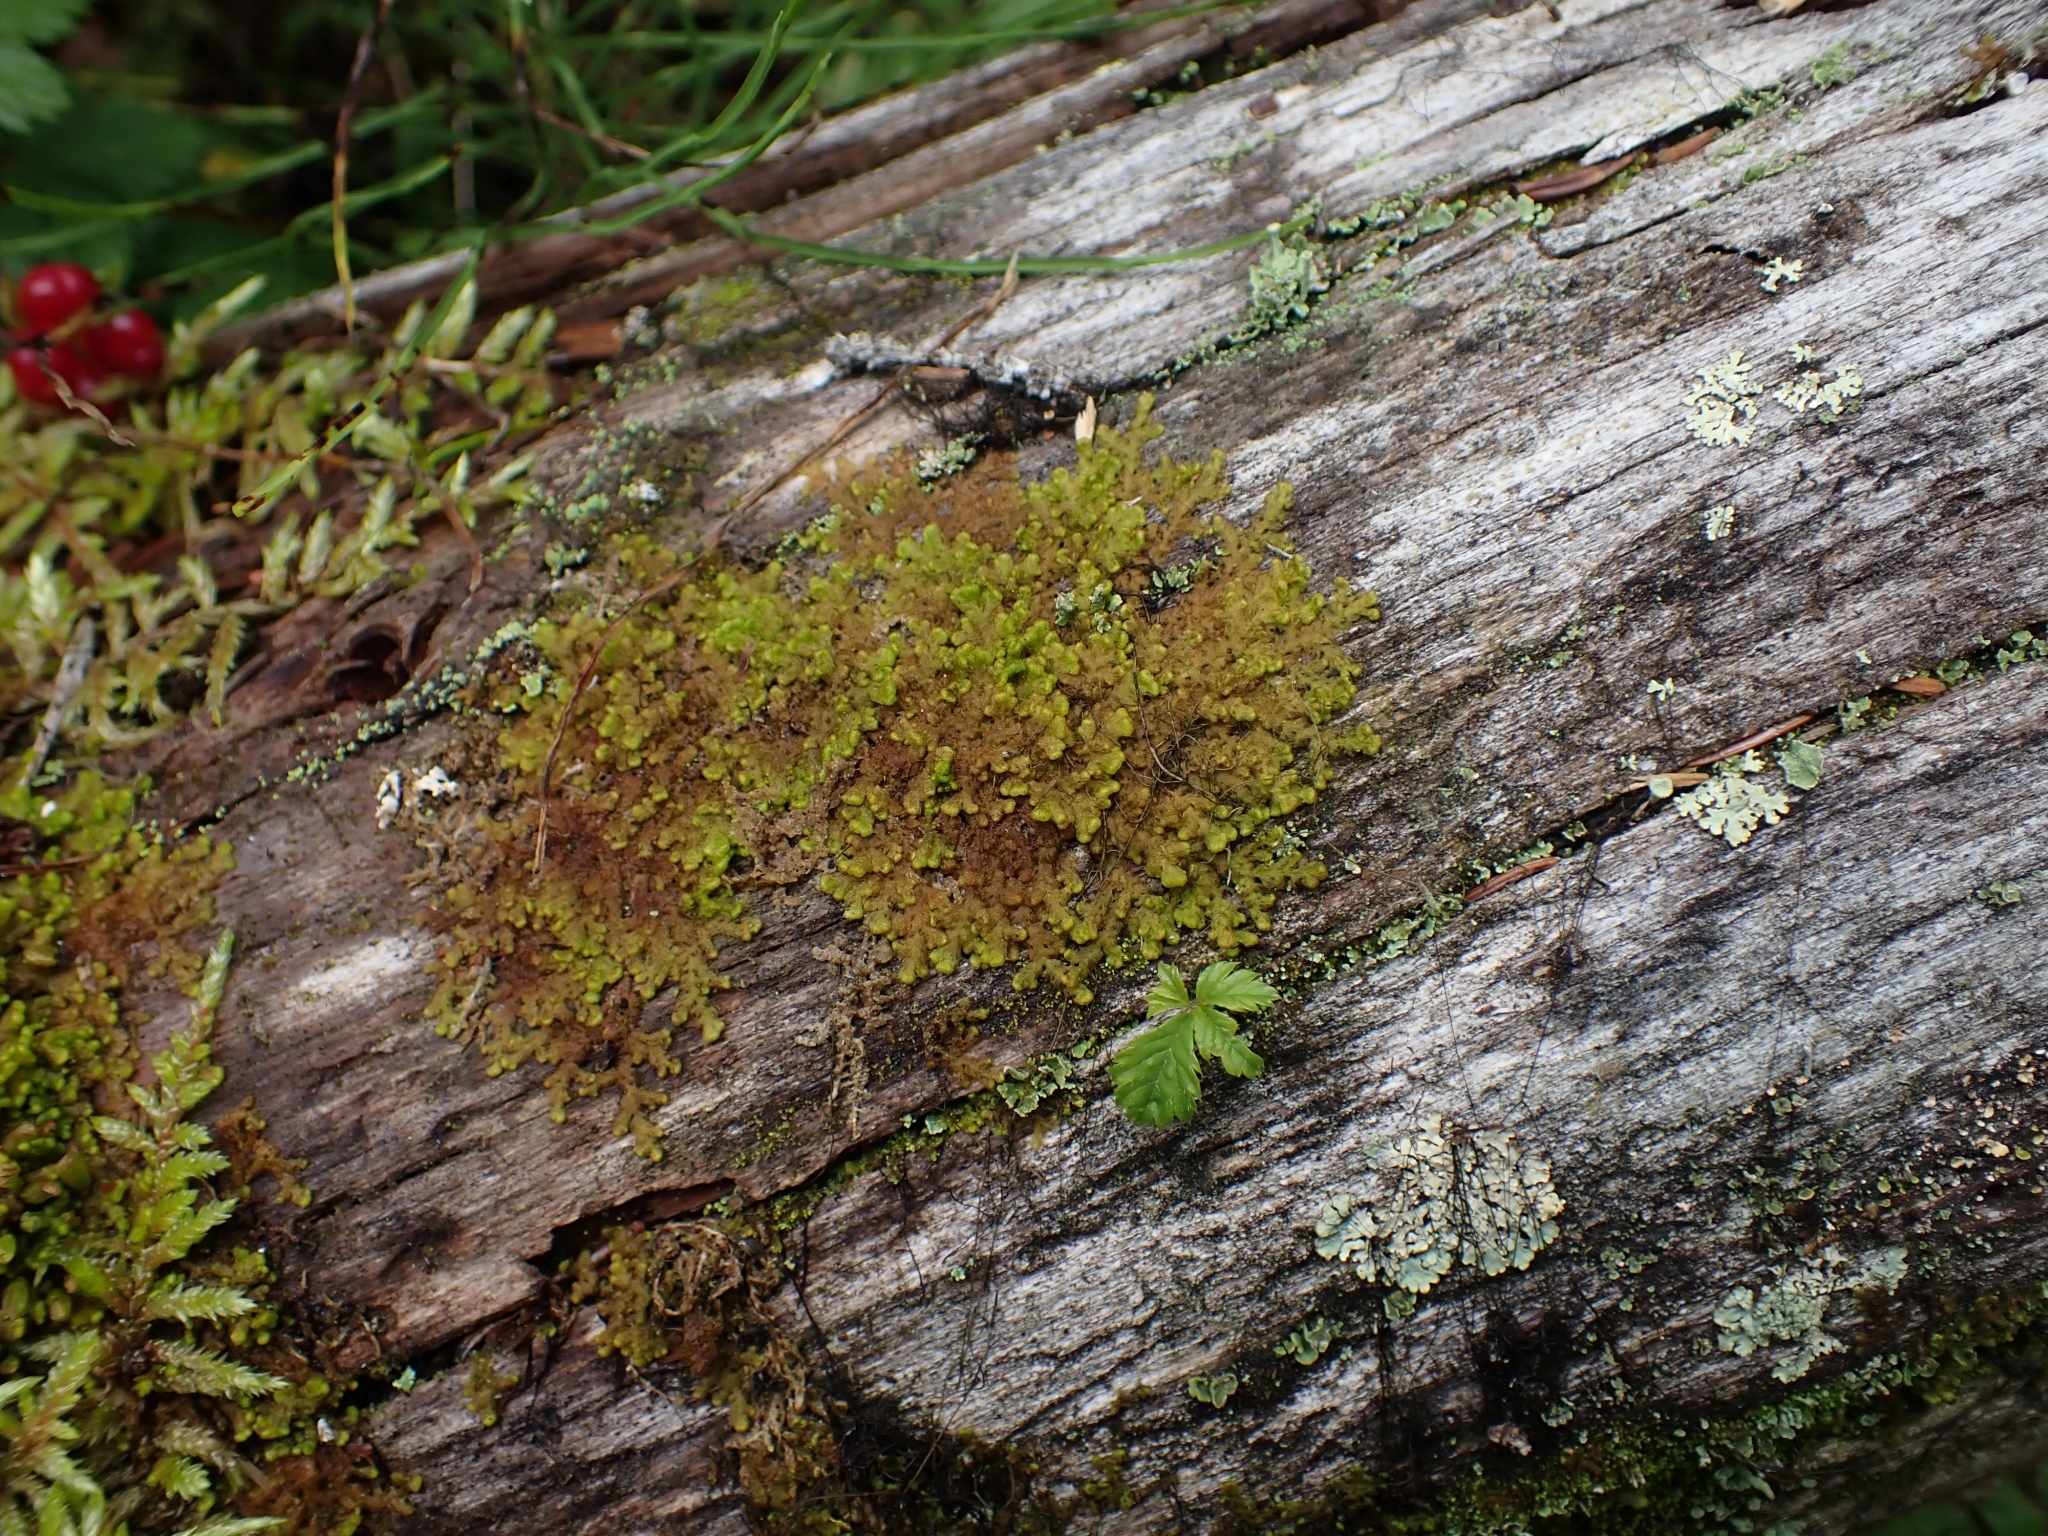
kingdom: Plantae
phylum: Marchantiophyta
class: Jungermanniopsida
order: Ptilidiales
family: Ptilidiaceae
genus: Ptilidium
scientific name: Ptilidium pulcherrimum
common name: Tree fringewort
